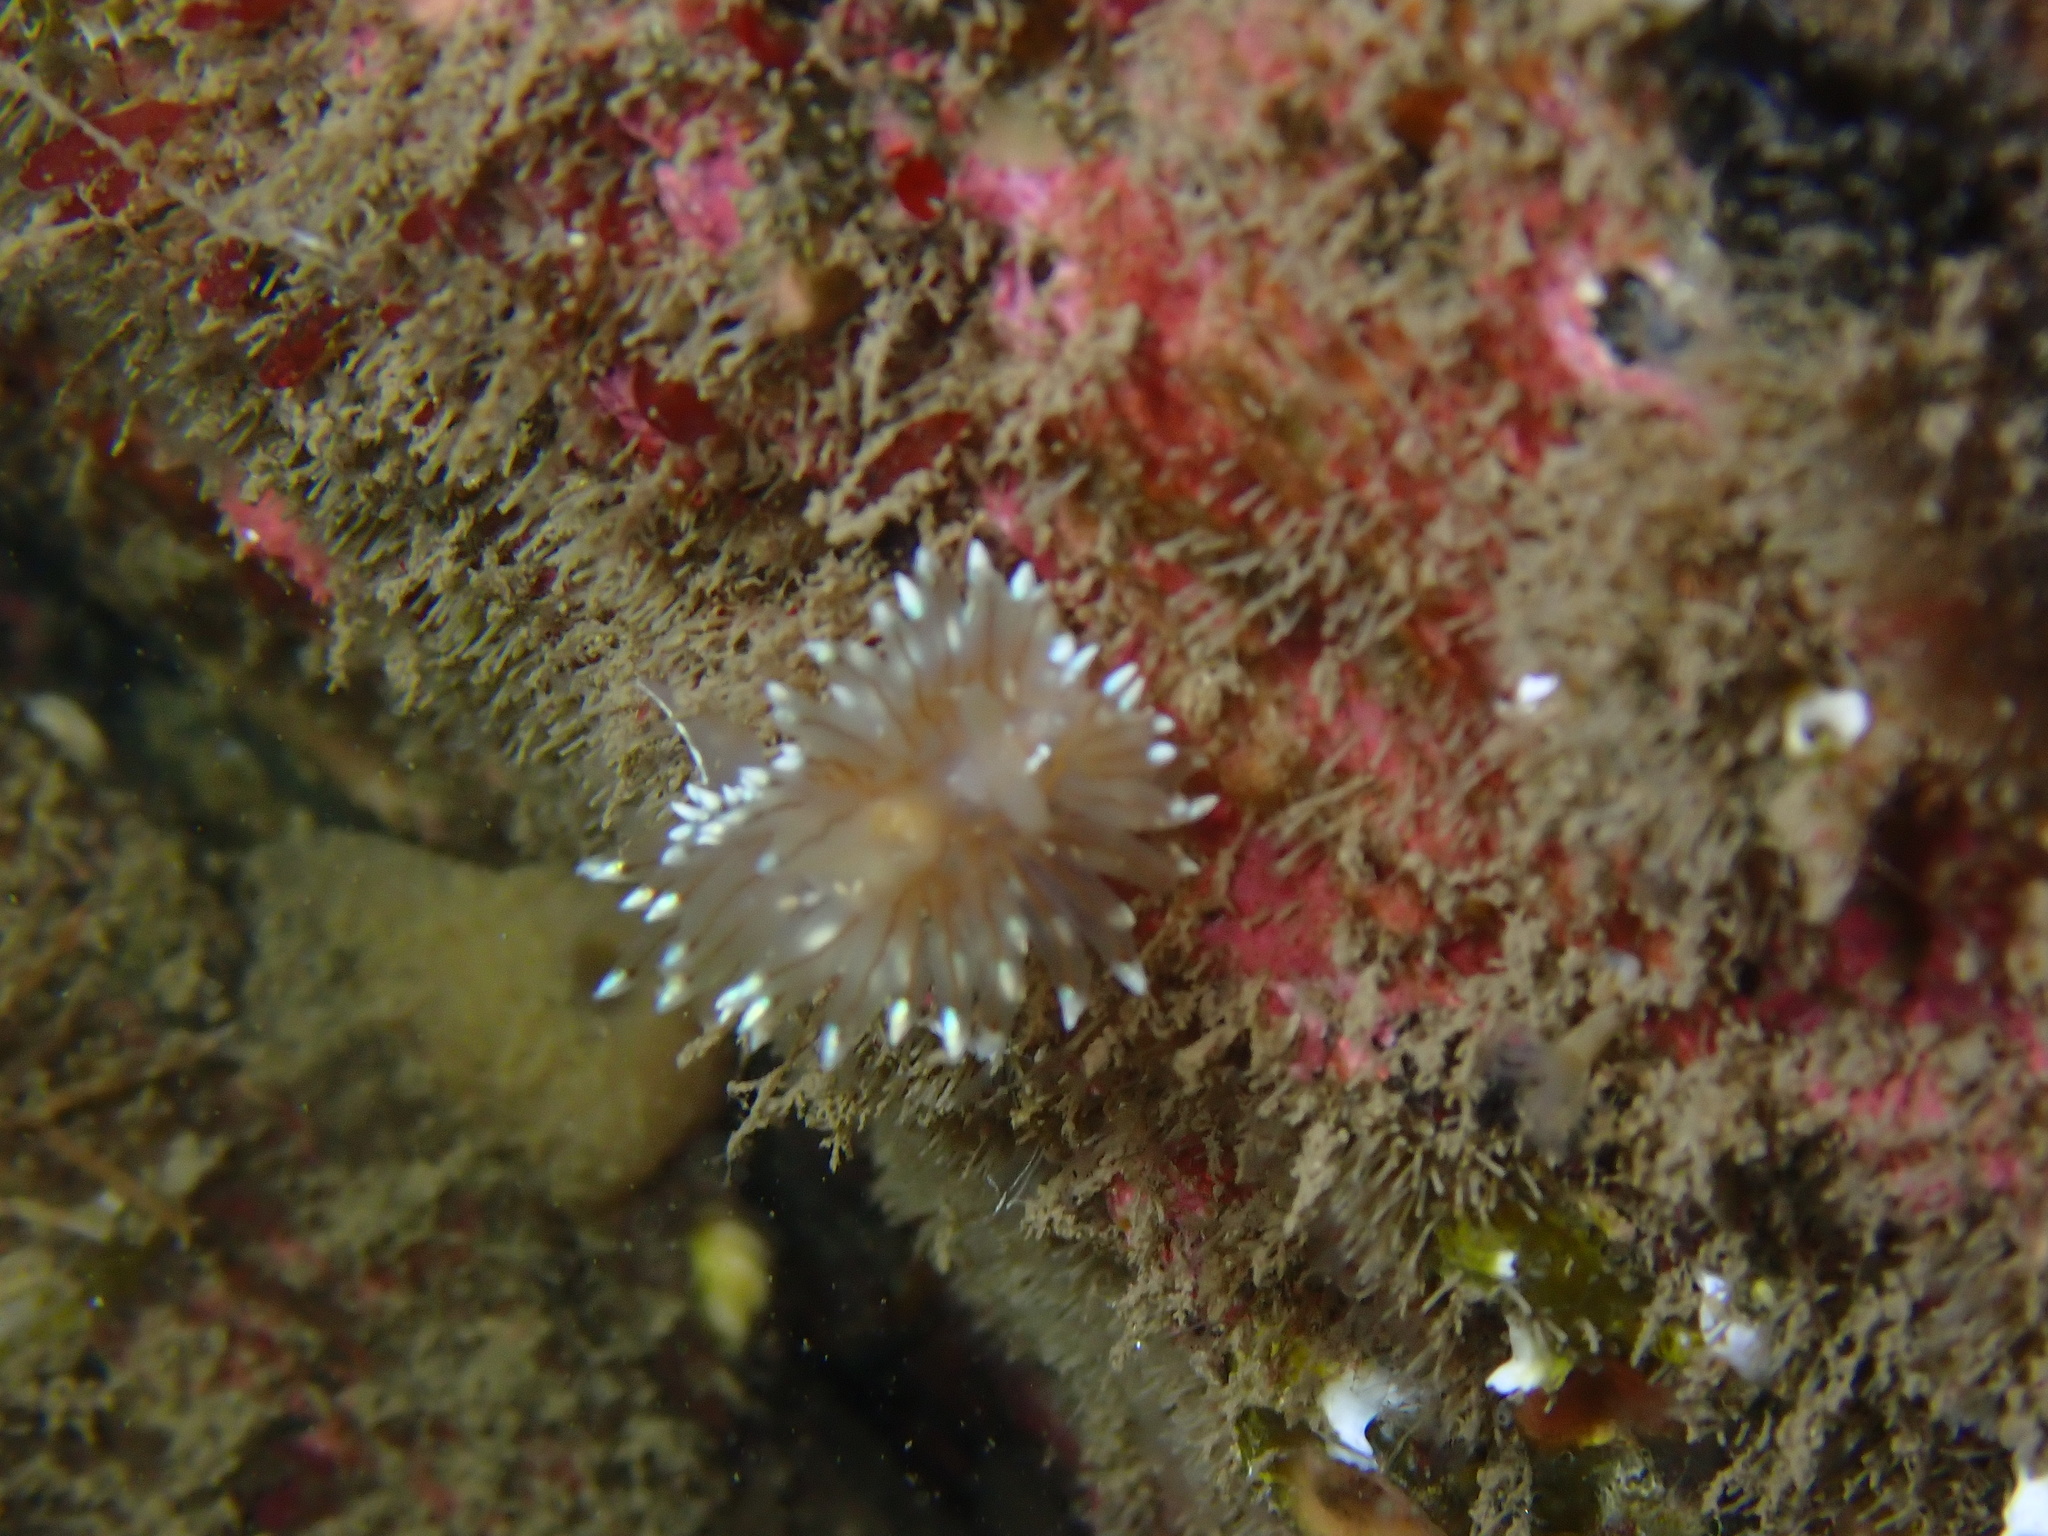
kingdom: Animalia
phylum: Mollusca
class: Gastropoda
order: Nudibranchia
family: Janolidae
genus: Antiopella
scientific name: Antiopella cristata
